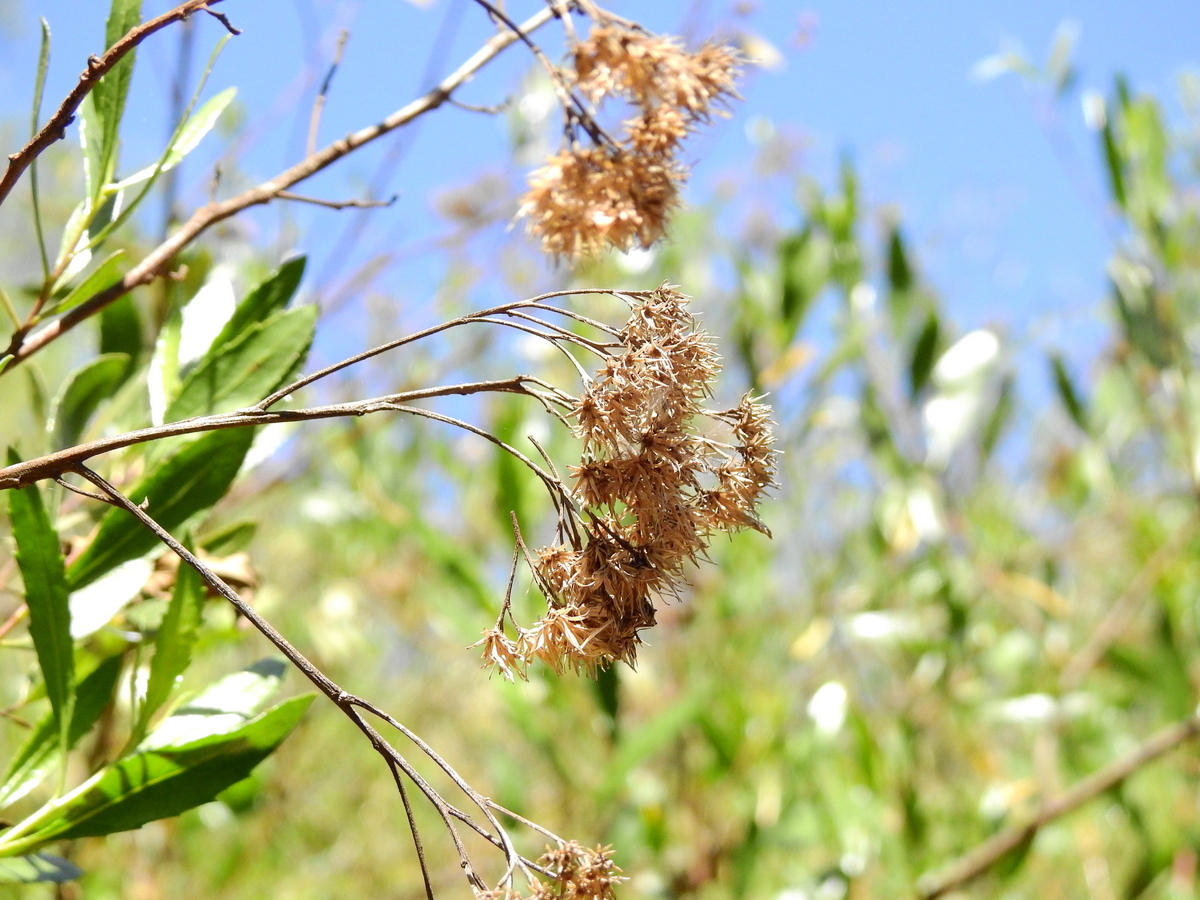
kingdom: Plantae
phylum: Tracheophyta
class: Magnoliopsida
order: Asterales
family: Asteraceae
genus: Tessaria
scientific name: Tessaria dodonaeifolia
